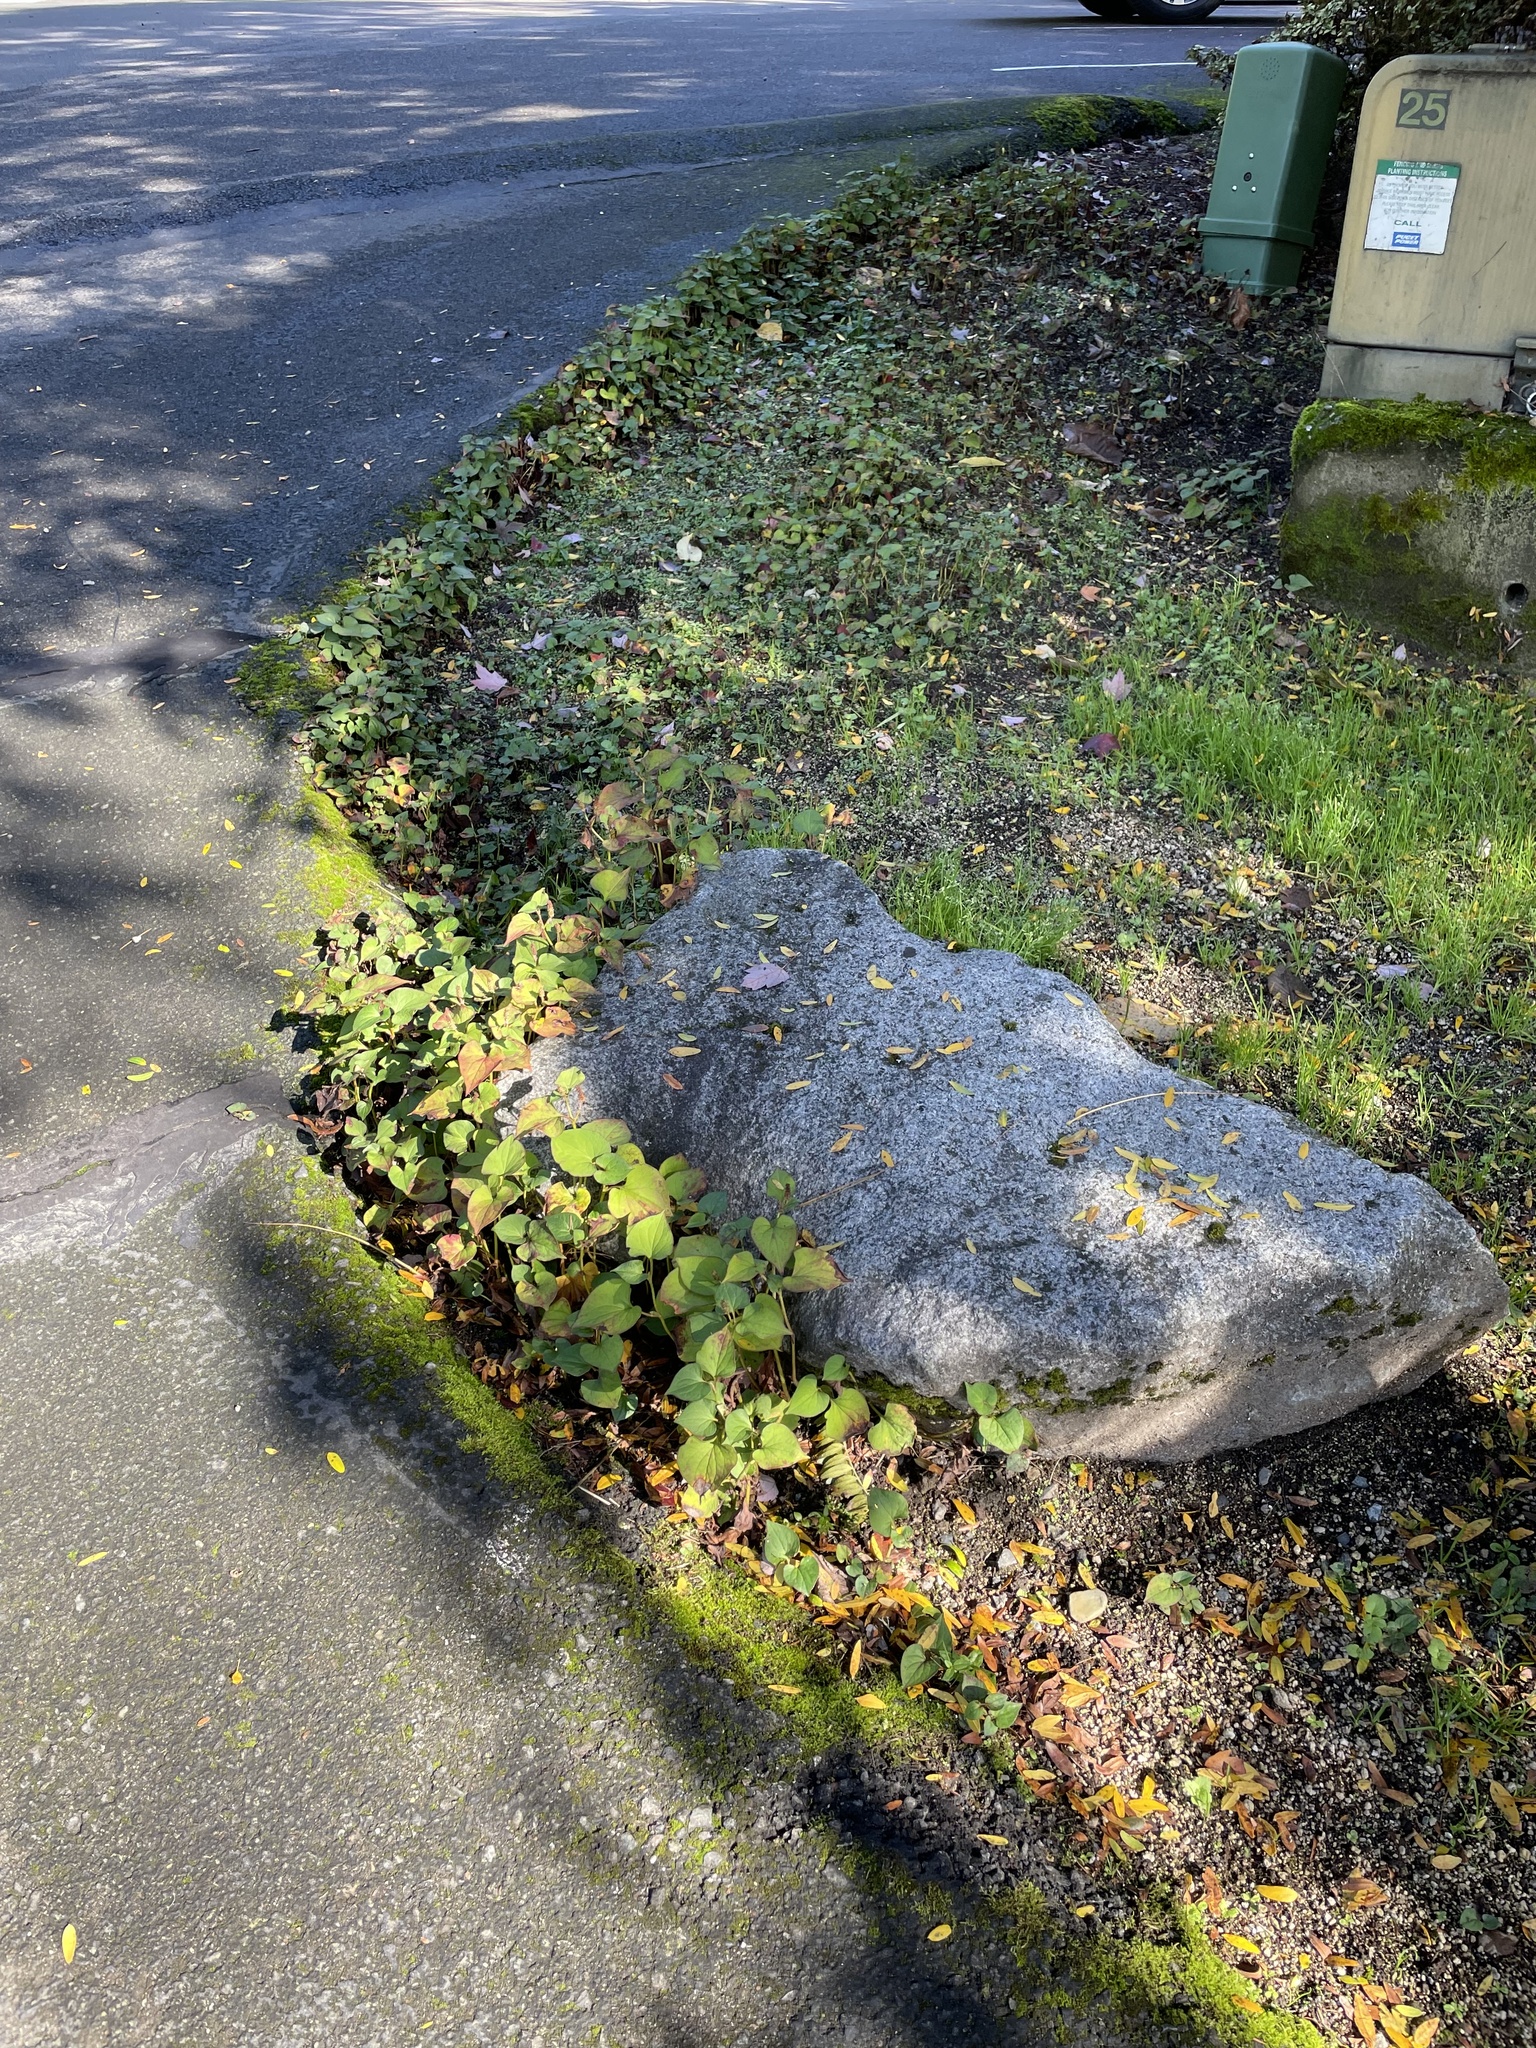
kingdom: Plantae
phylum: Tracheophyta
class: Magnoliopsida
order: Piperales
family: Saururaceae
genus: Houttuynia
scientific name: Houttuynia cordata
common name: Chameleon
